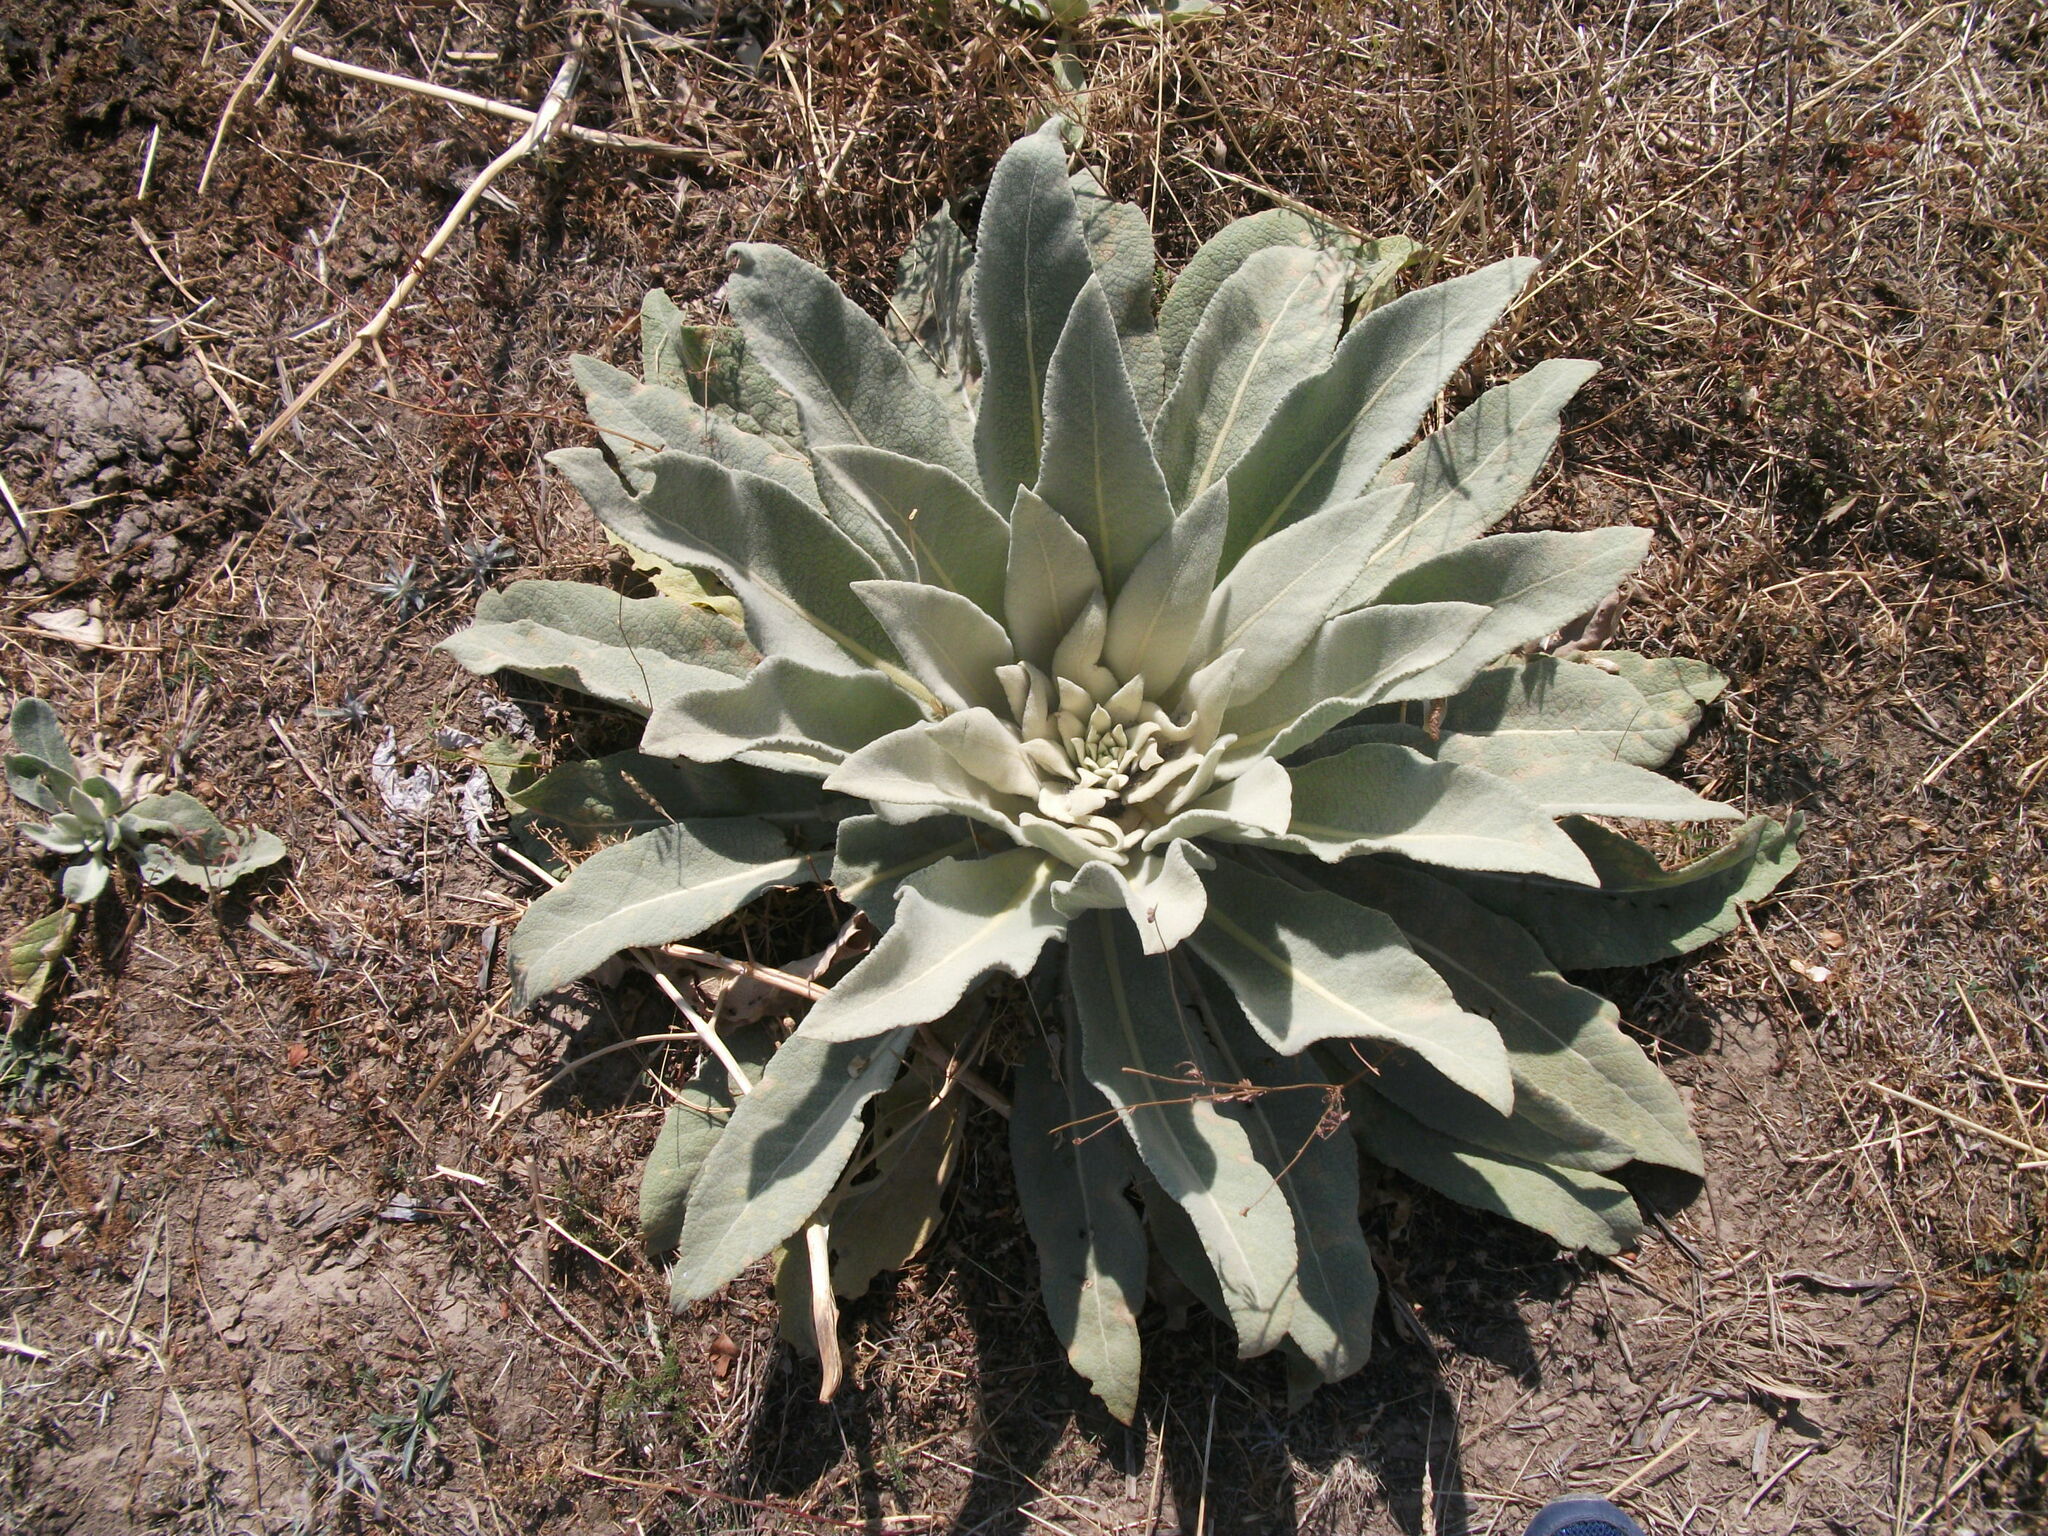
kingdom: Plantae
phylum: Tracheophyta
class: Magnoliopsida
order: Lamiales
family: Scrophulariaceae
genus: Verbascum
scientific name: Verbascum songaricum
